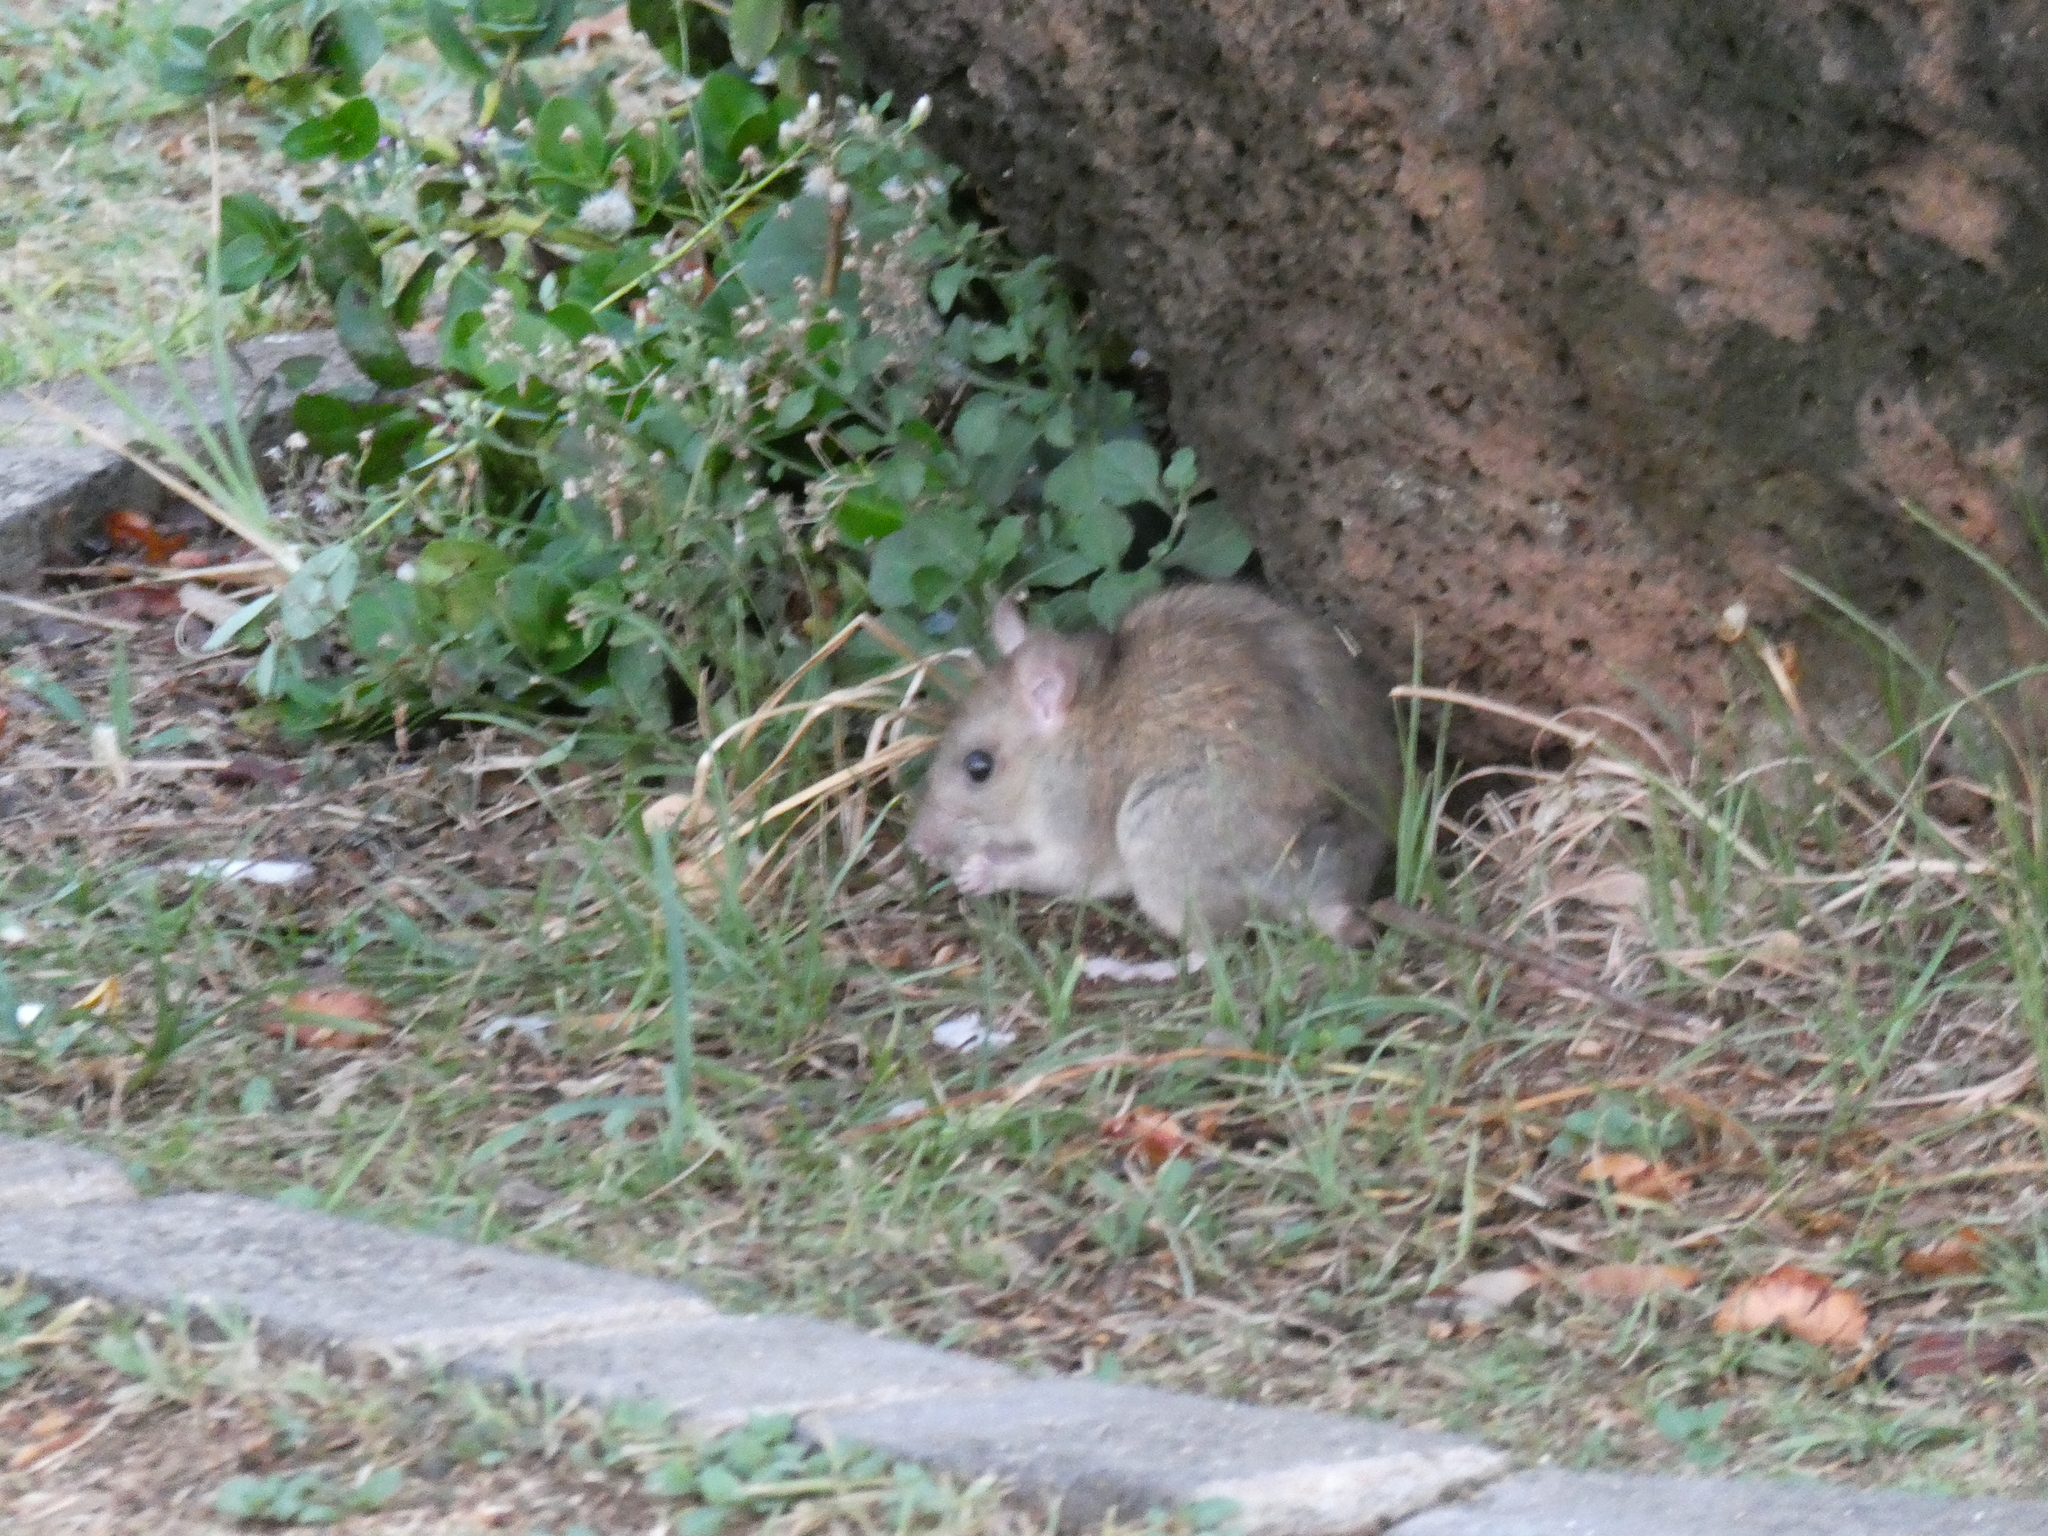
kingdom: Animalia
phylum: Chordata
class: Mammalia
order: Rodentia
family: Muridae
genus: Rattus
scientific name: Rattus rattus
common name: Black rat
